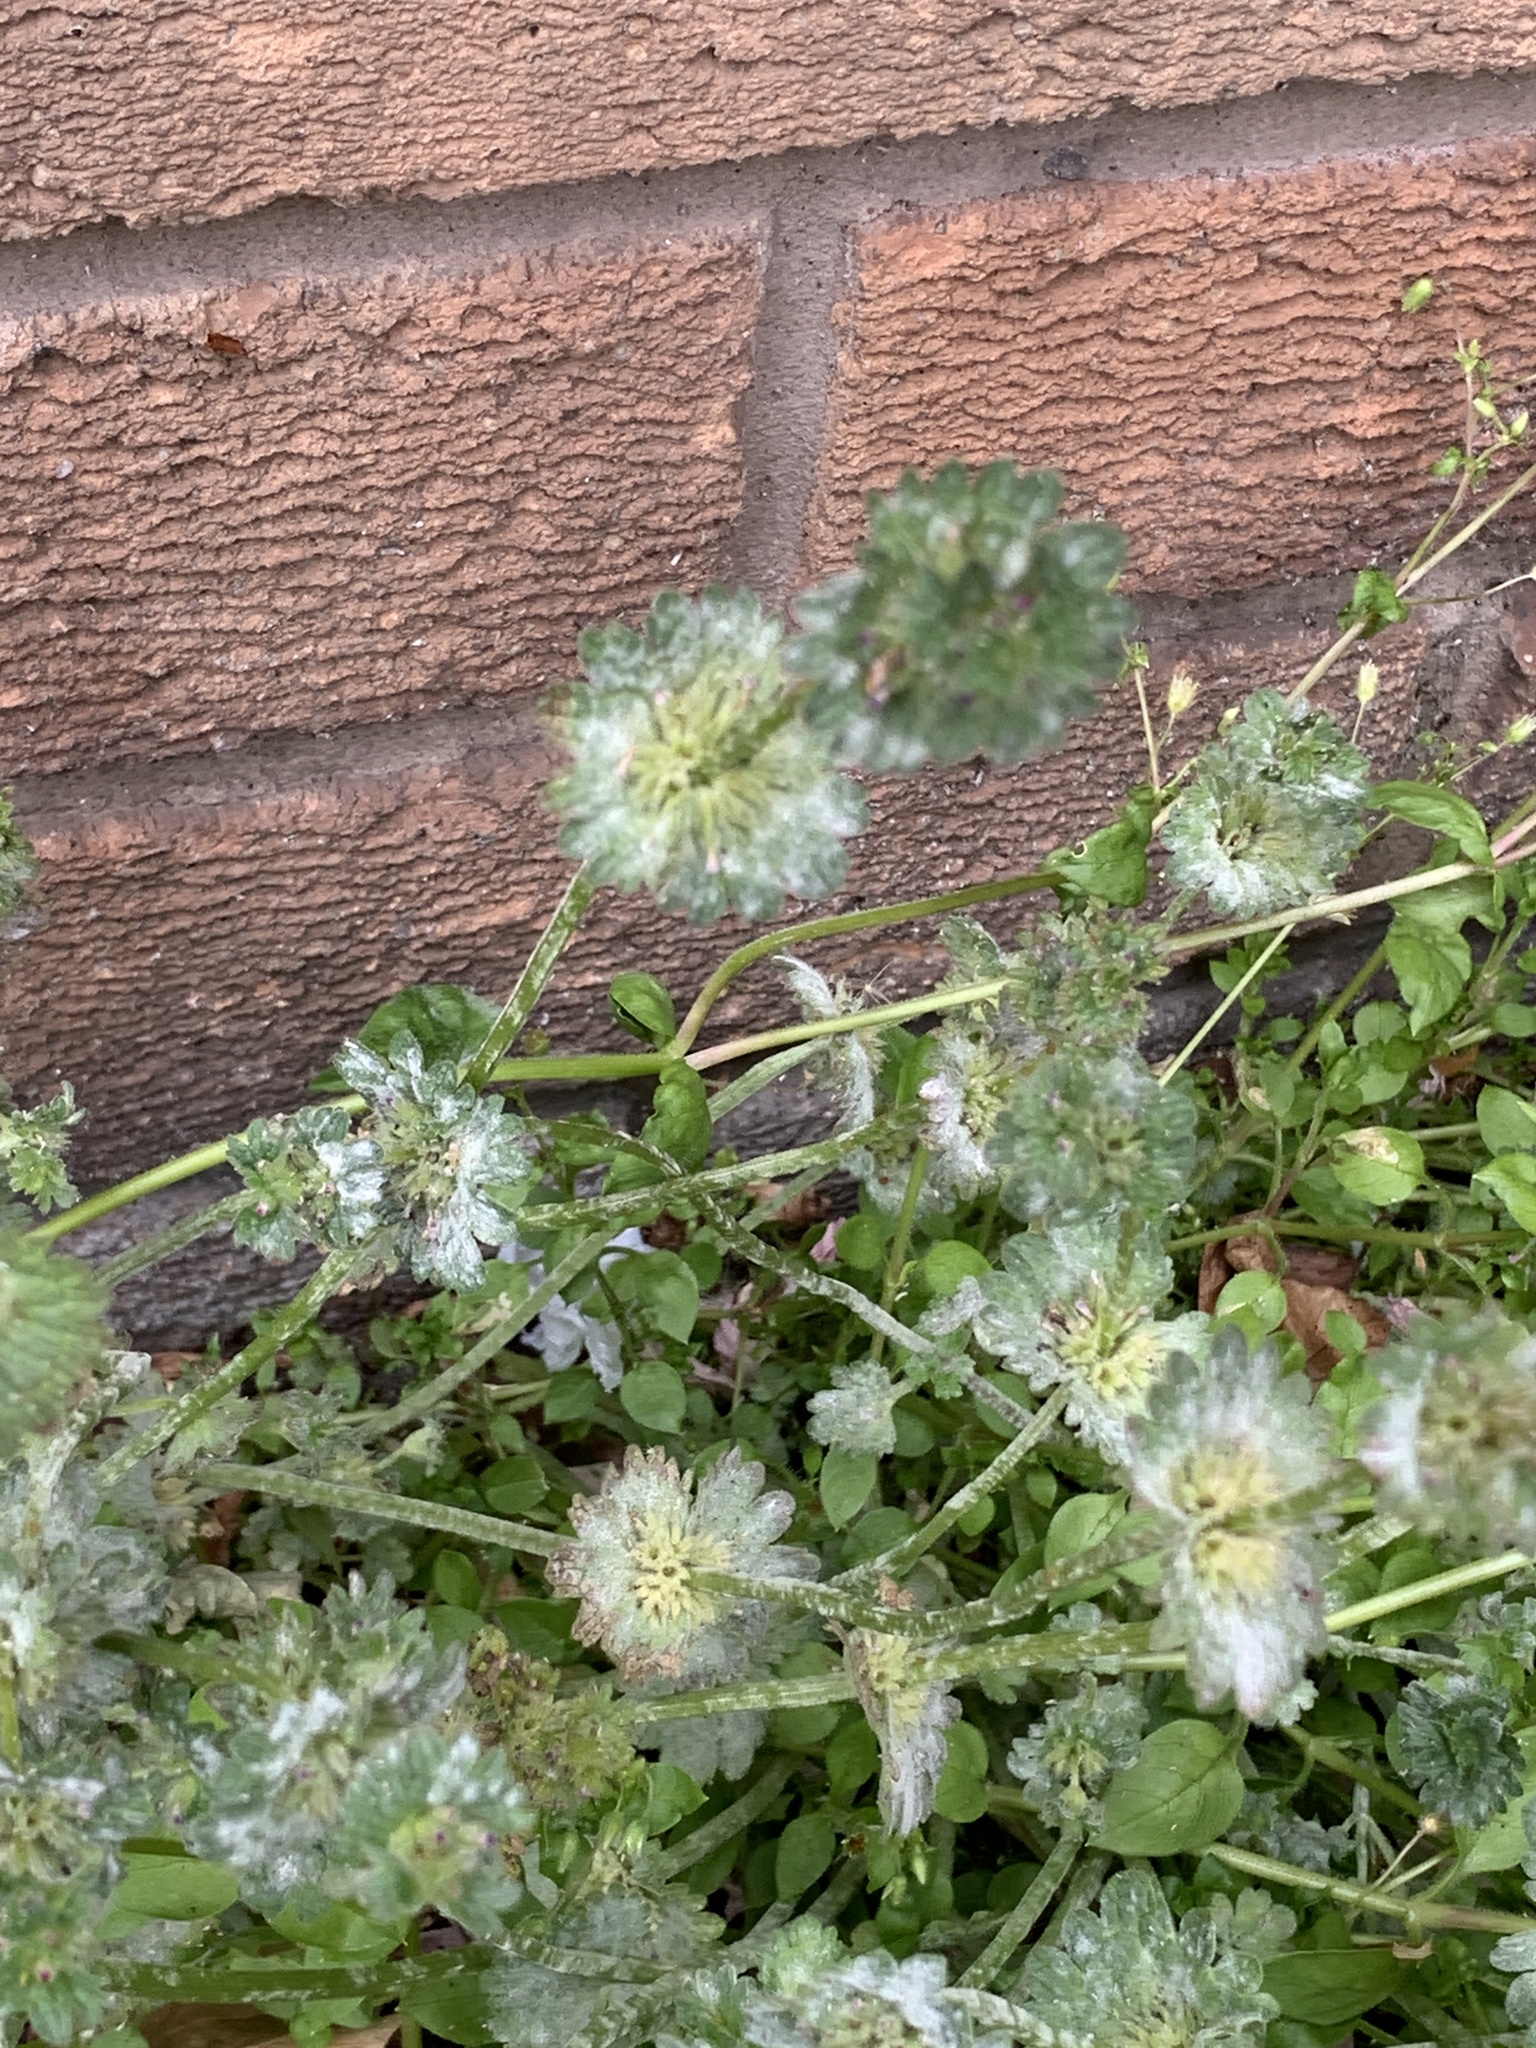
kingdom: Plantae
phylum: Tracheophyta
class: Magnoliopsida
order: Lamiales
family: Lamiaceae
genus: Lamium
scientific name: Lamium amplexicaule
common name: Henbit dead-nettle
